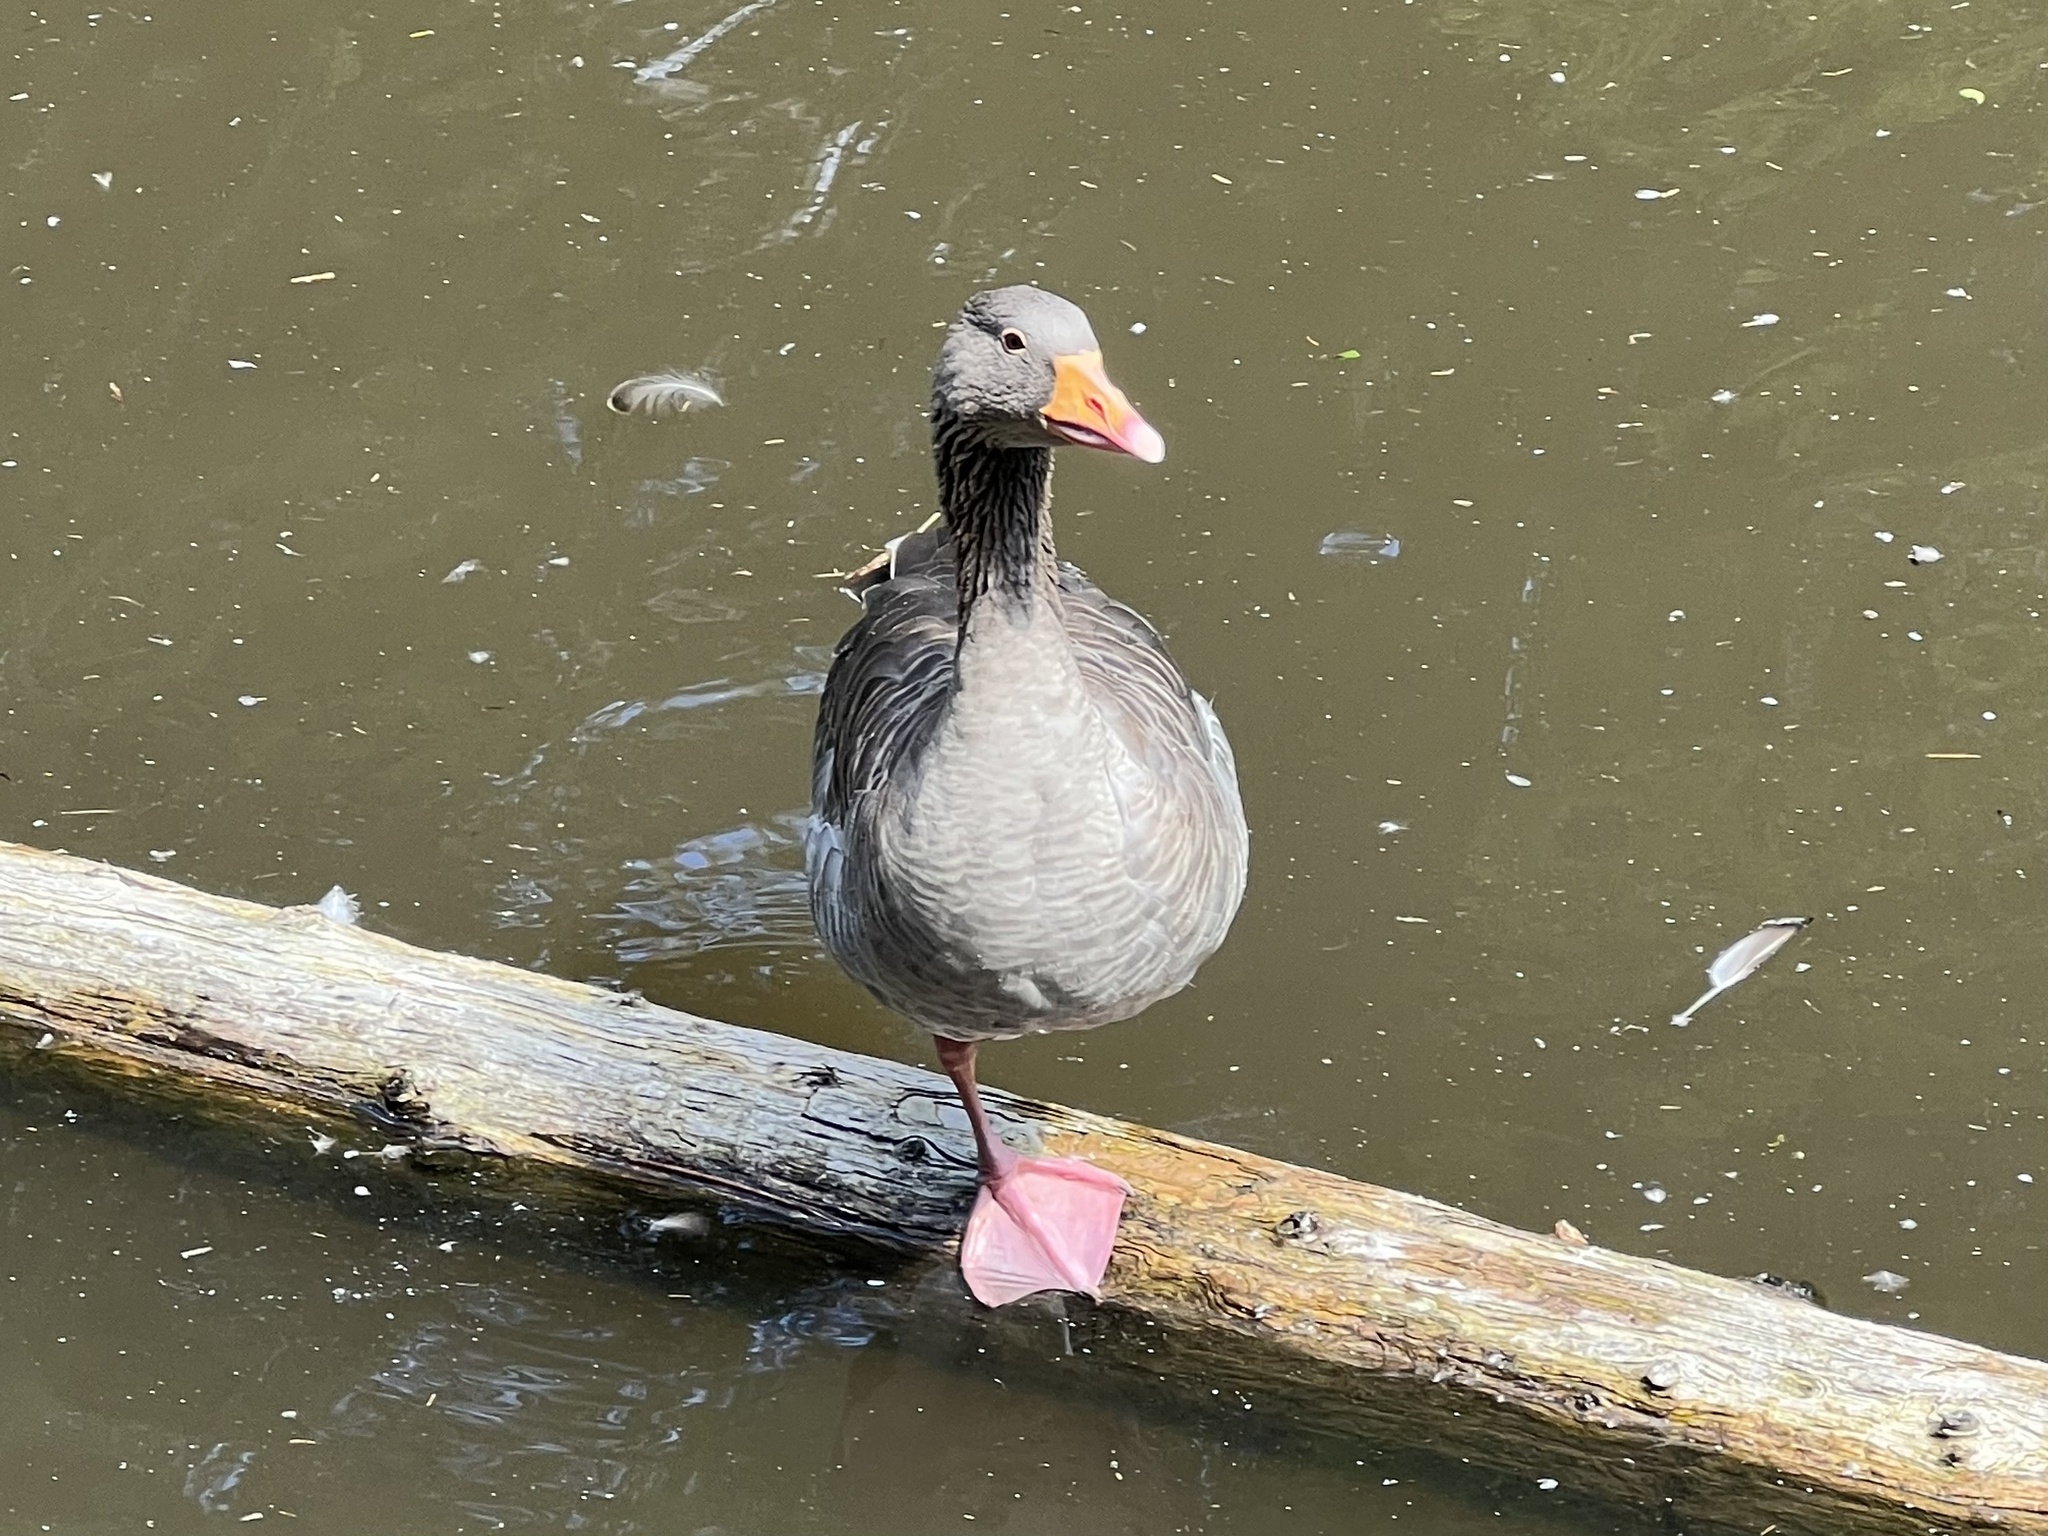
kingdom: Animalia
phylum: Chordata
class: Aves
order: Anseriformes
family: Anatidae
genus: Anser
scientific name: Anser anser
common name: Greylag goose
